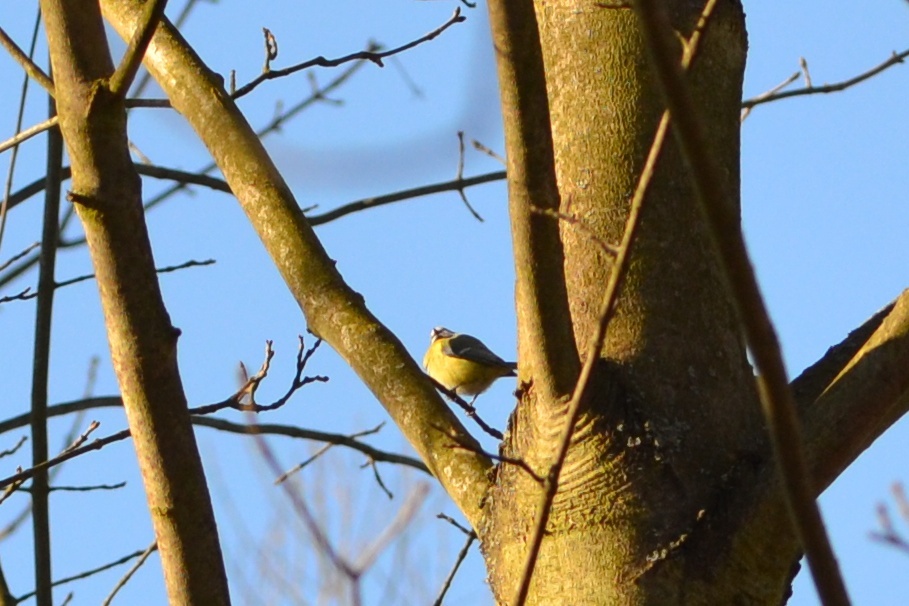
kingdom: Animalia
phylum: Chordata
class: Aves
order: Passeriformes
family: Paridae
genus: Cyanistes
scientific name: Cyanistes caeruleus
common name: Eurasian blue tit
